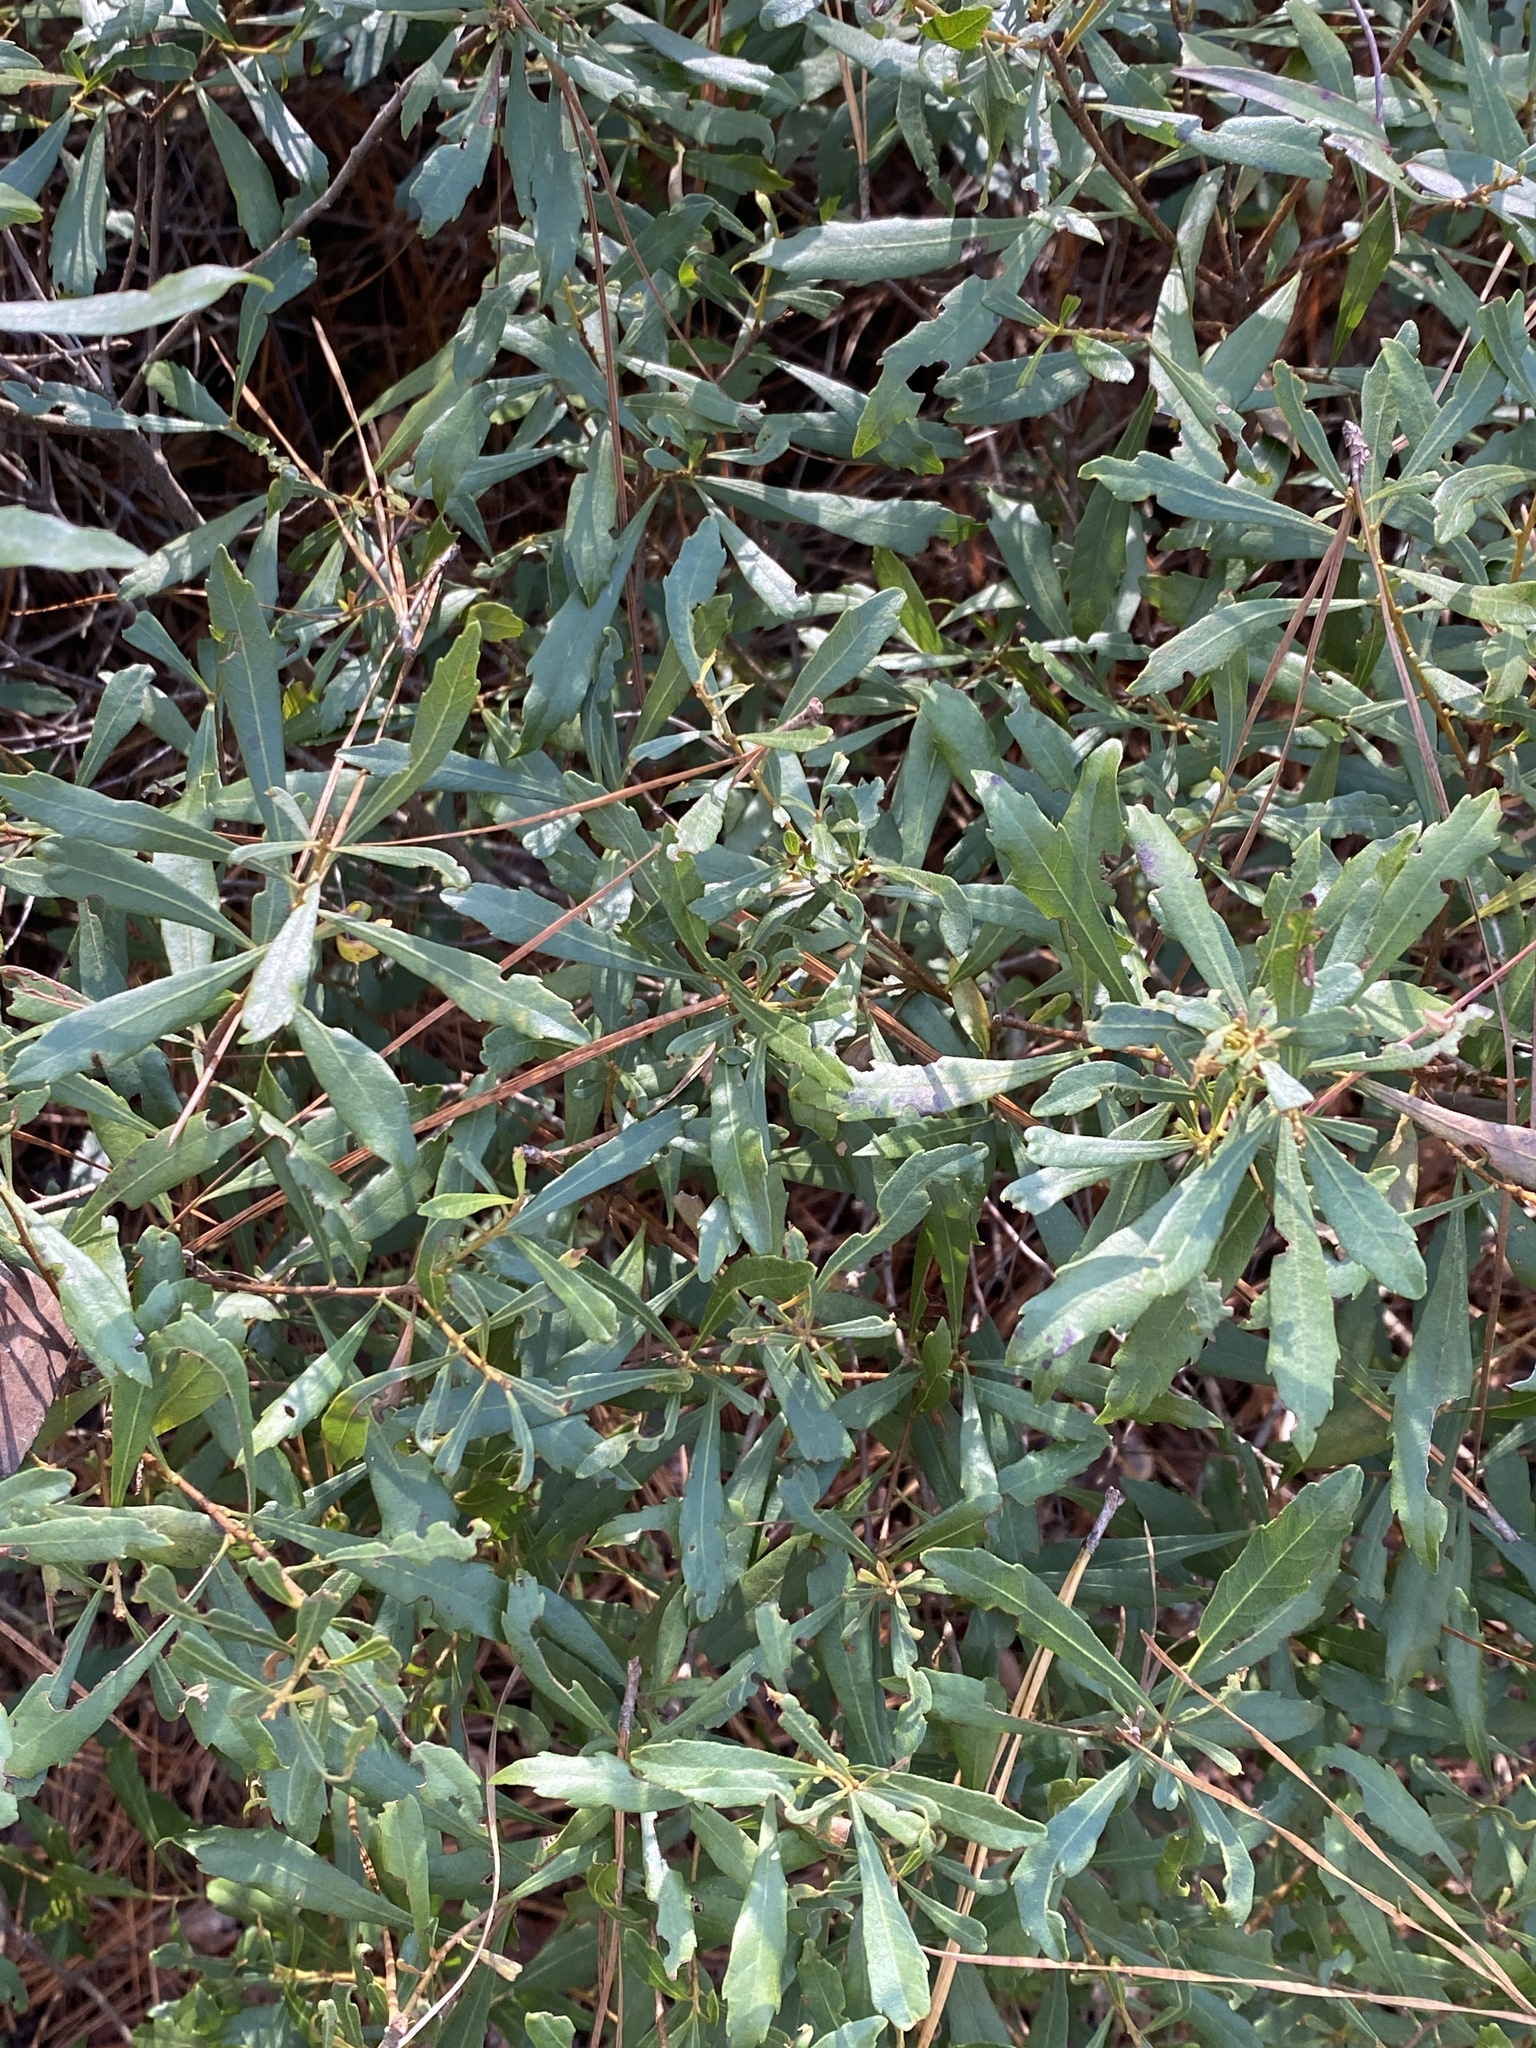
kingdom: Plantae
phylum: Tracheophyta
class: Magnoliopsida
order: Fagales
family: Myricaceae
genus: Morella
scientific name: Morella cerifera
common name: Wax myrtle
